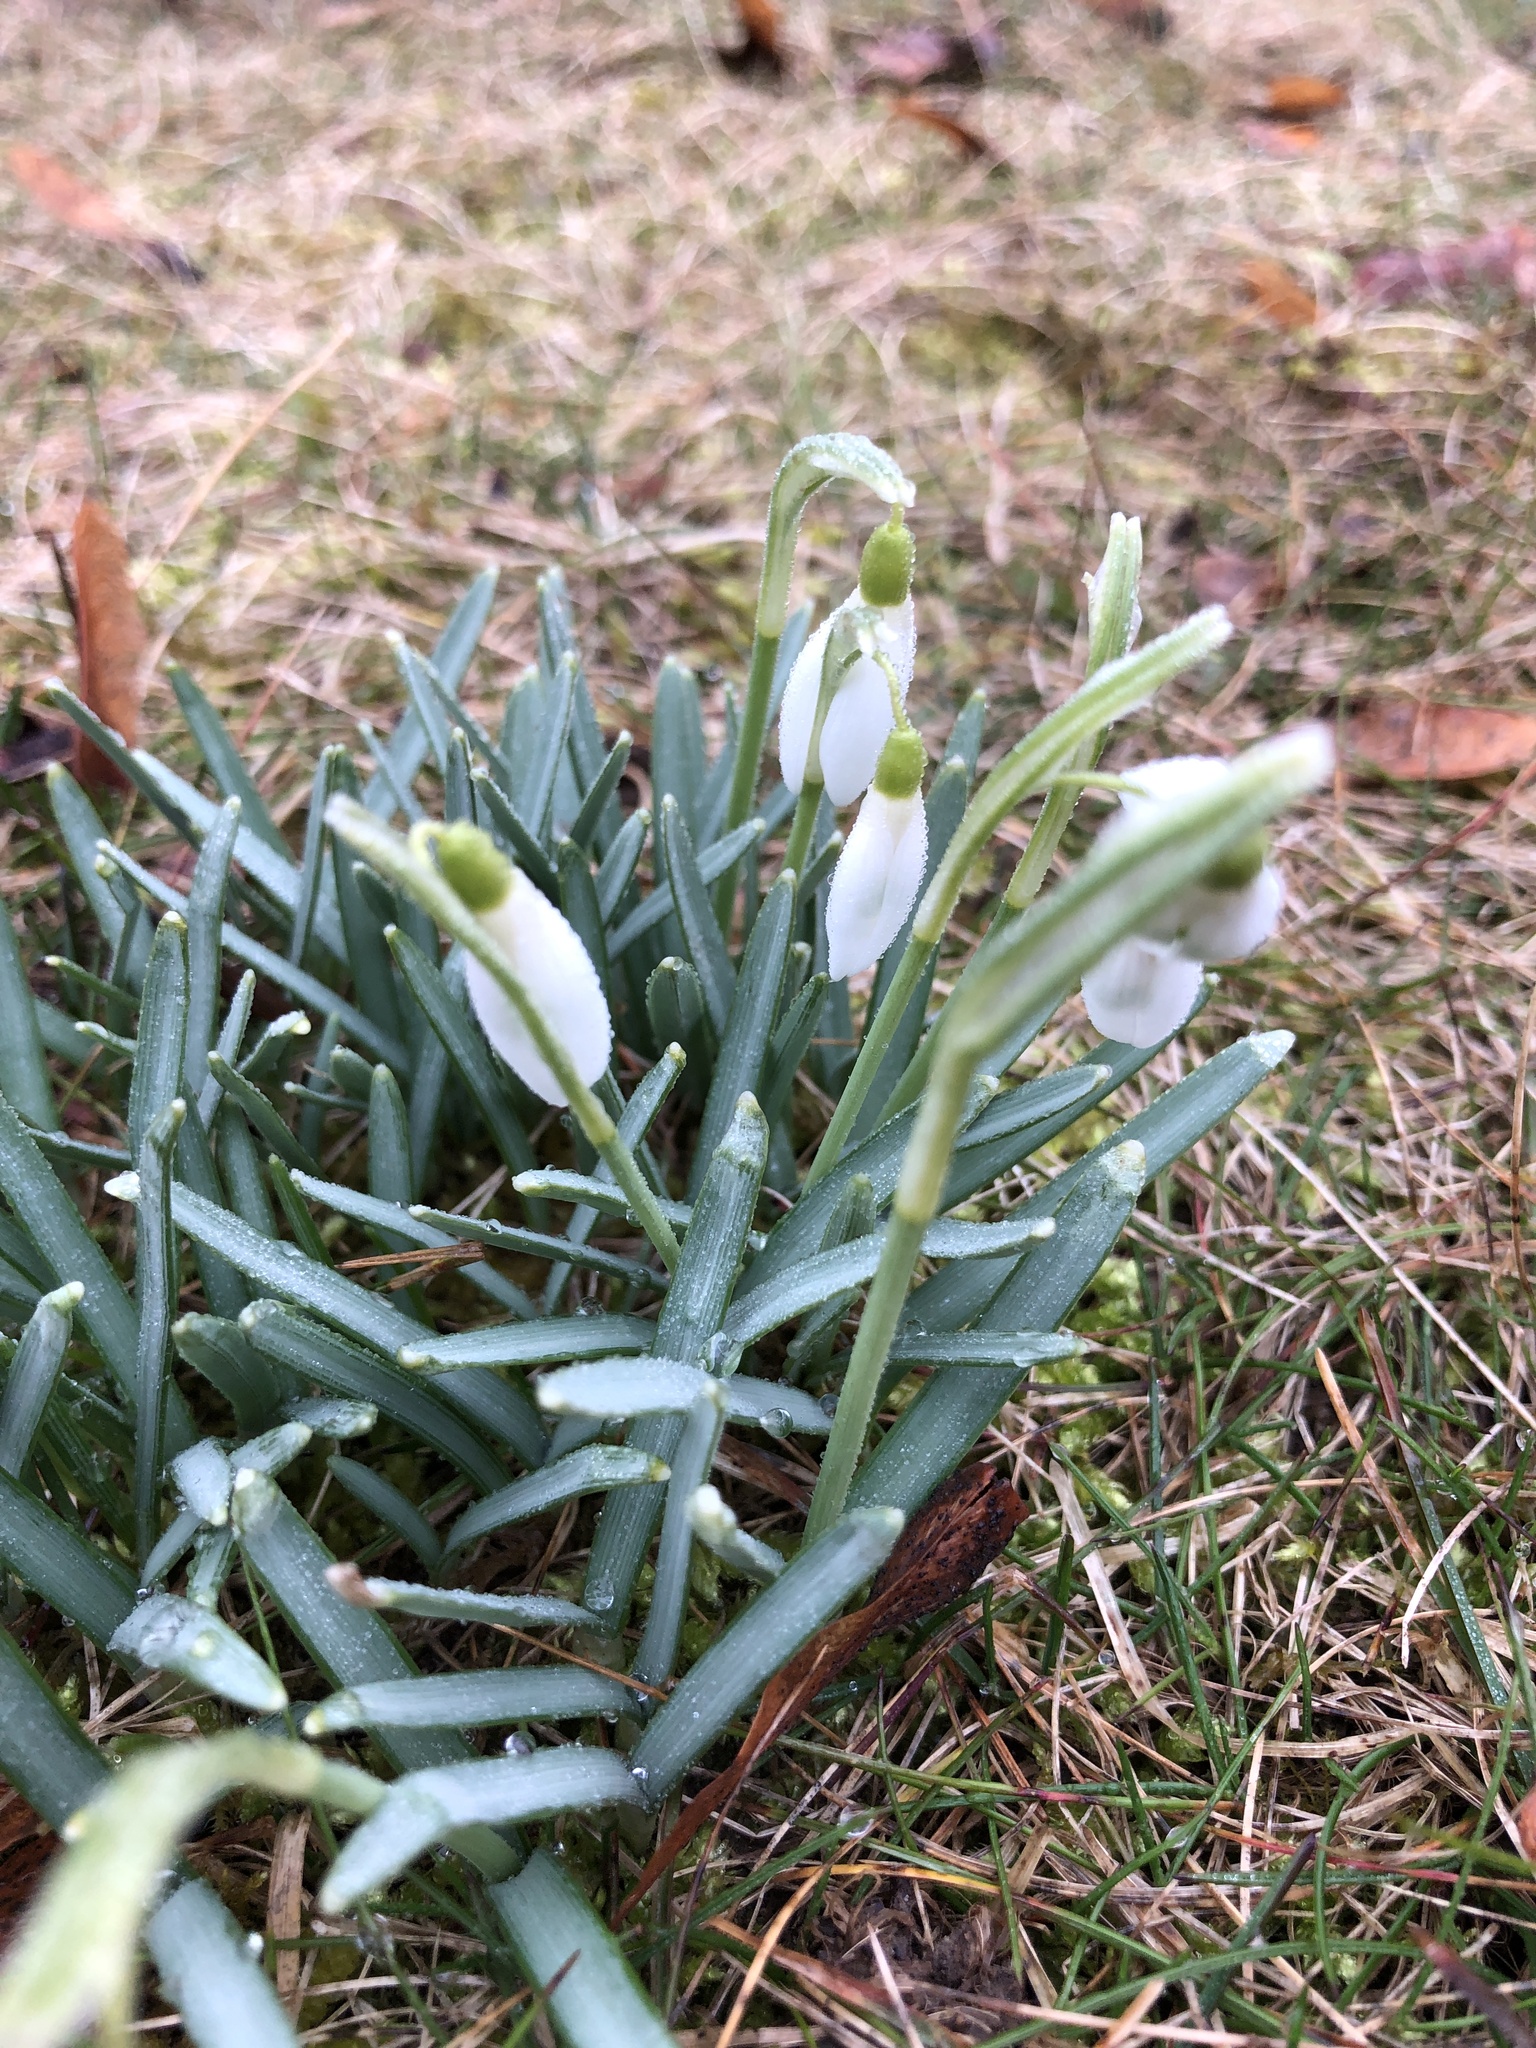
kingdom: Plantae
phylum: Tracheophyta
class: Liliopsida
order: Asparagales
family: Amaryllidaceae
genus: Galanthus
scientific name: Galanthus nivalis
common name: Snowdrop
